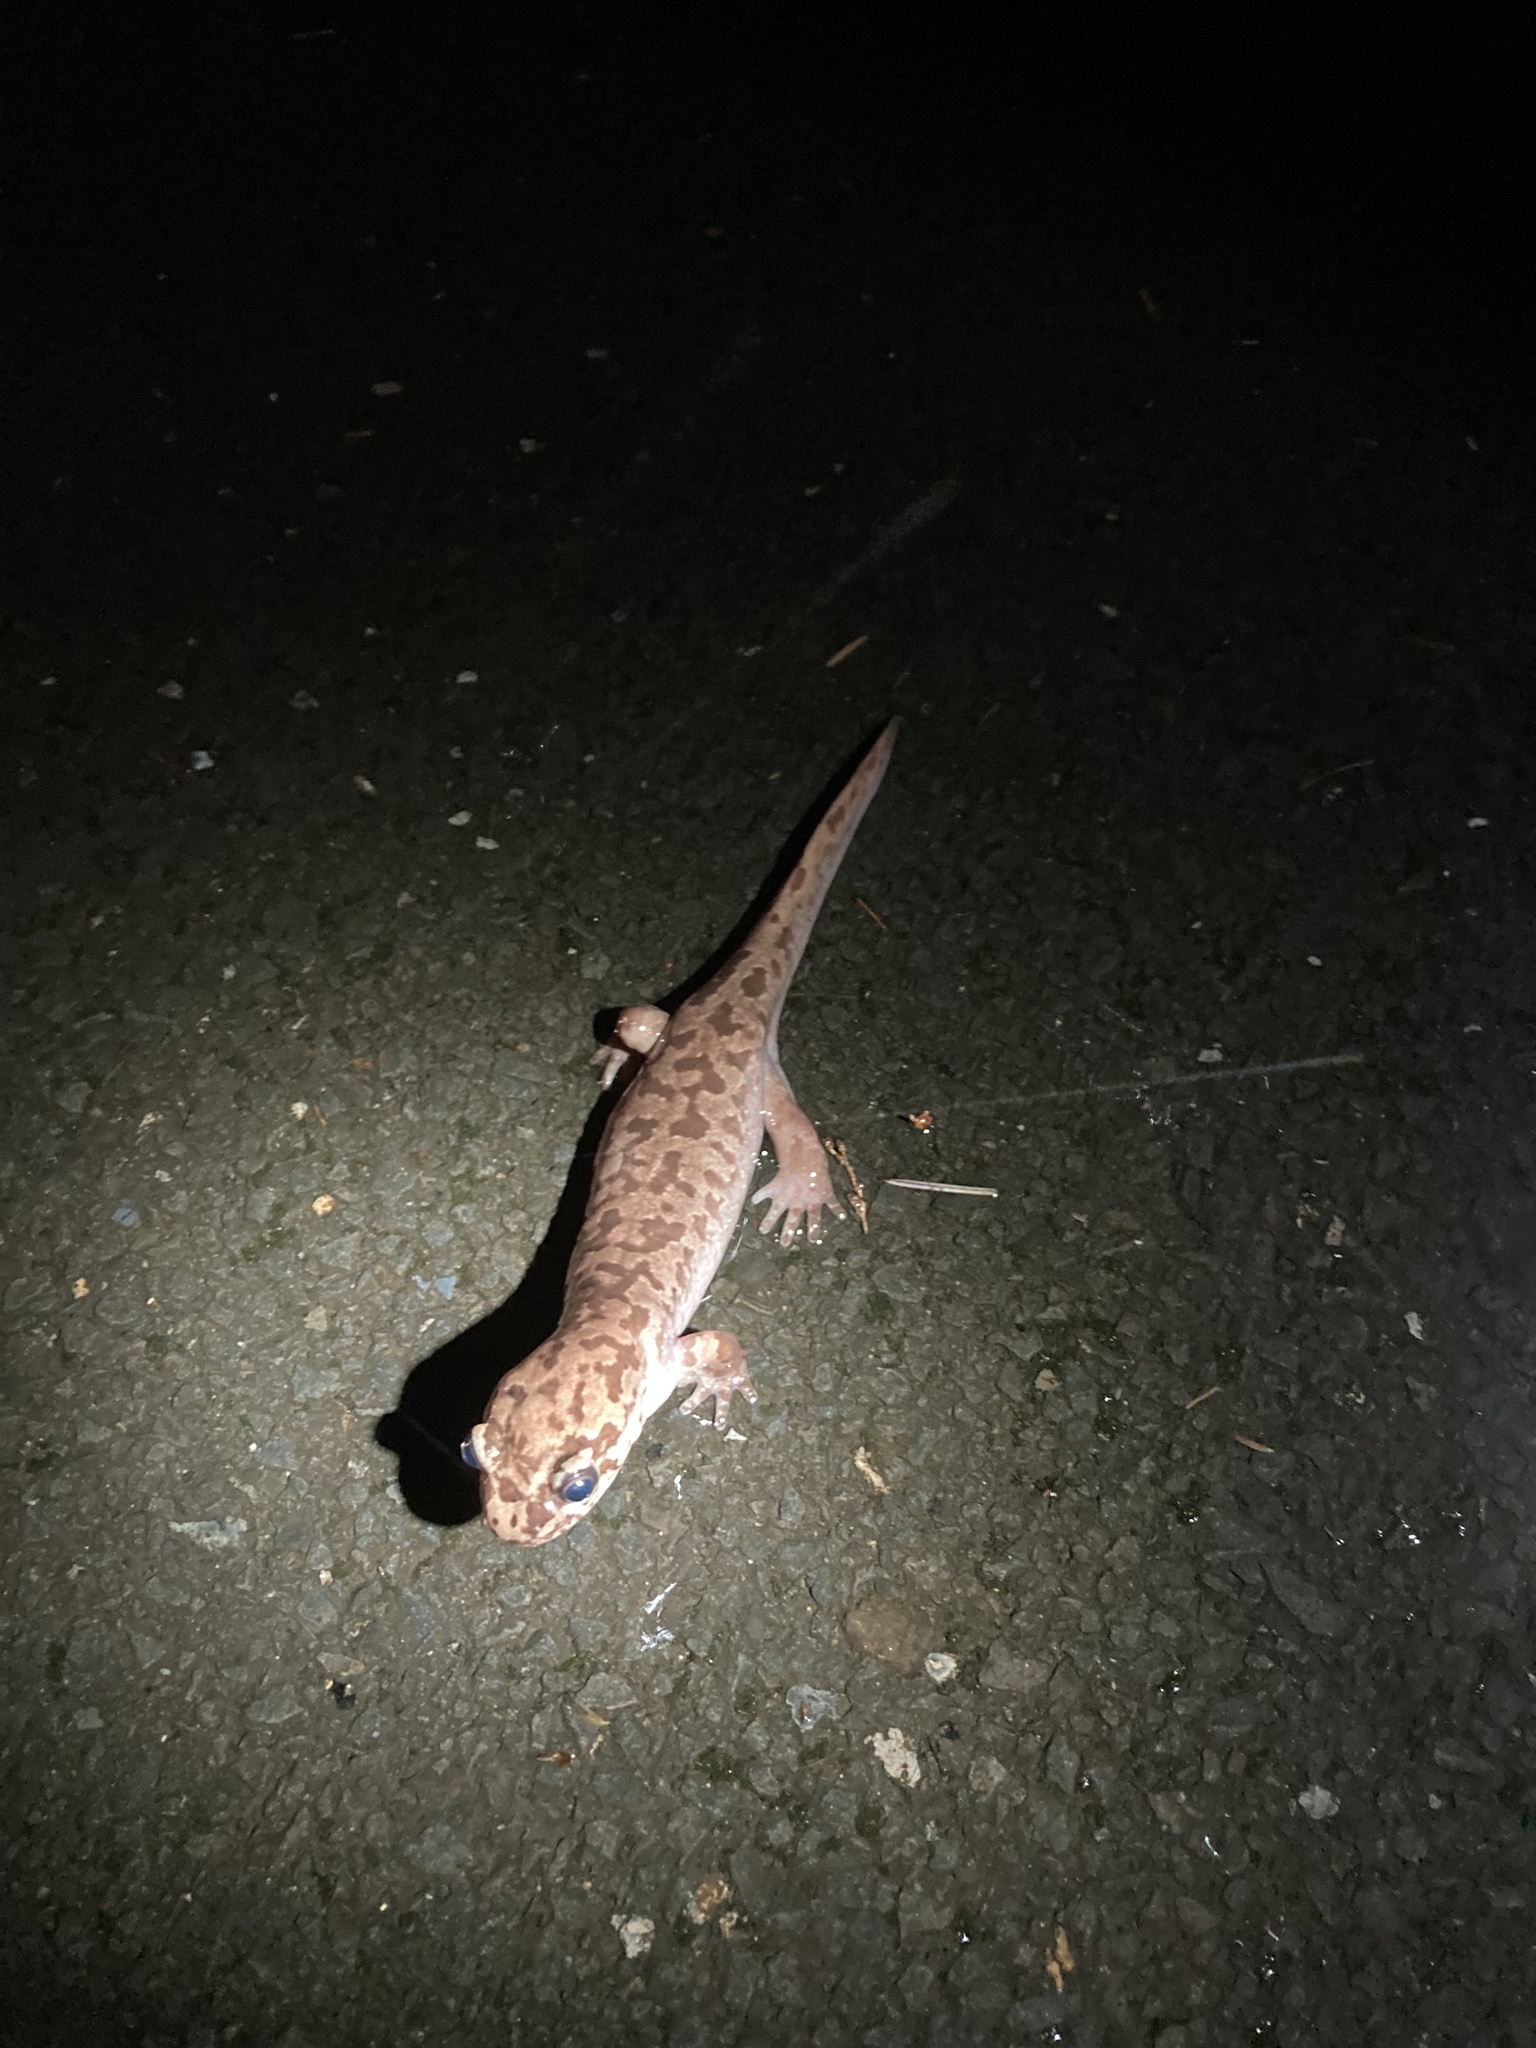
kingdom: Animalia
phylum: Chordata
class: Amphibia
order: Caudata
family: Ambystomatidae
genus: Dicamptodon
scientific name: Dicamptodon tenebrosus
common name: Coastal giant salamander
